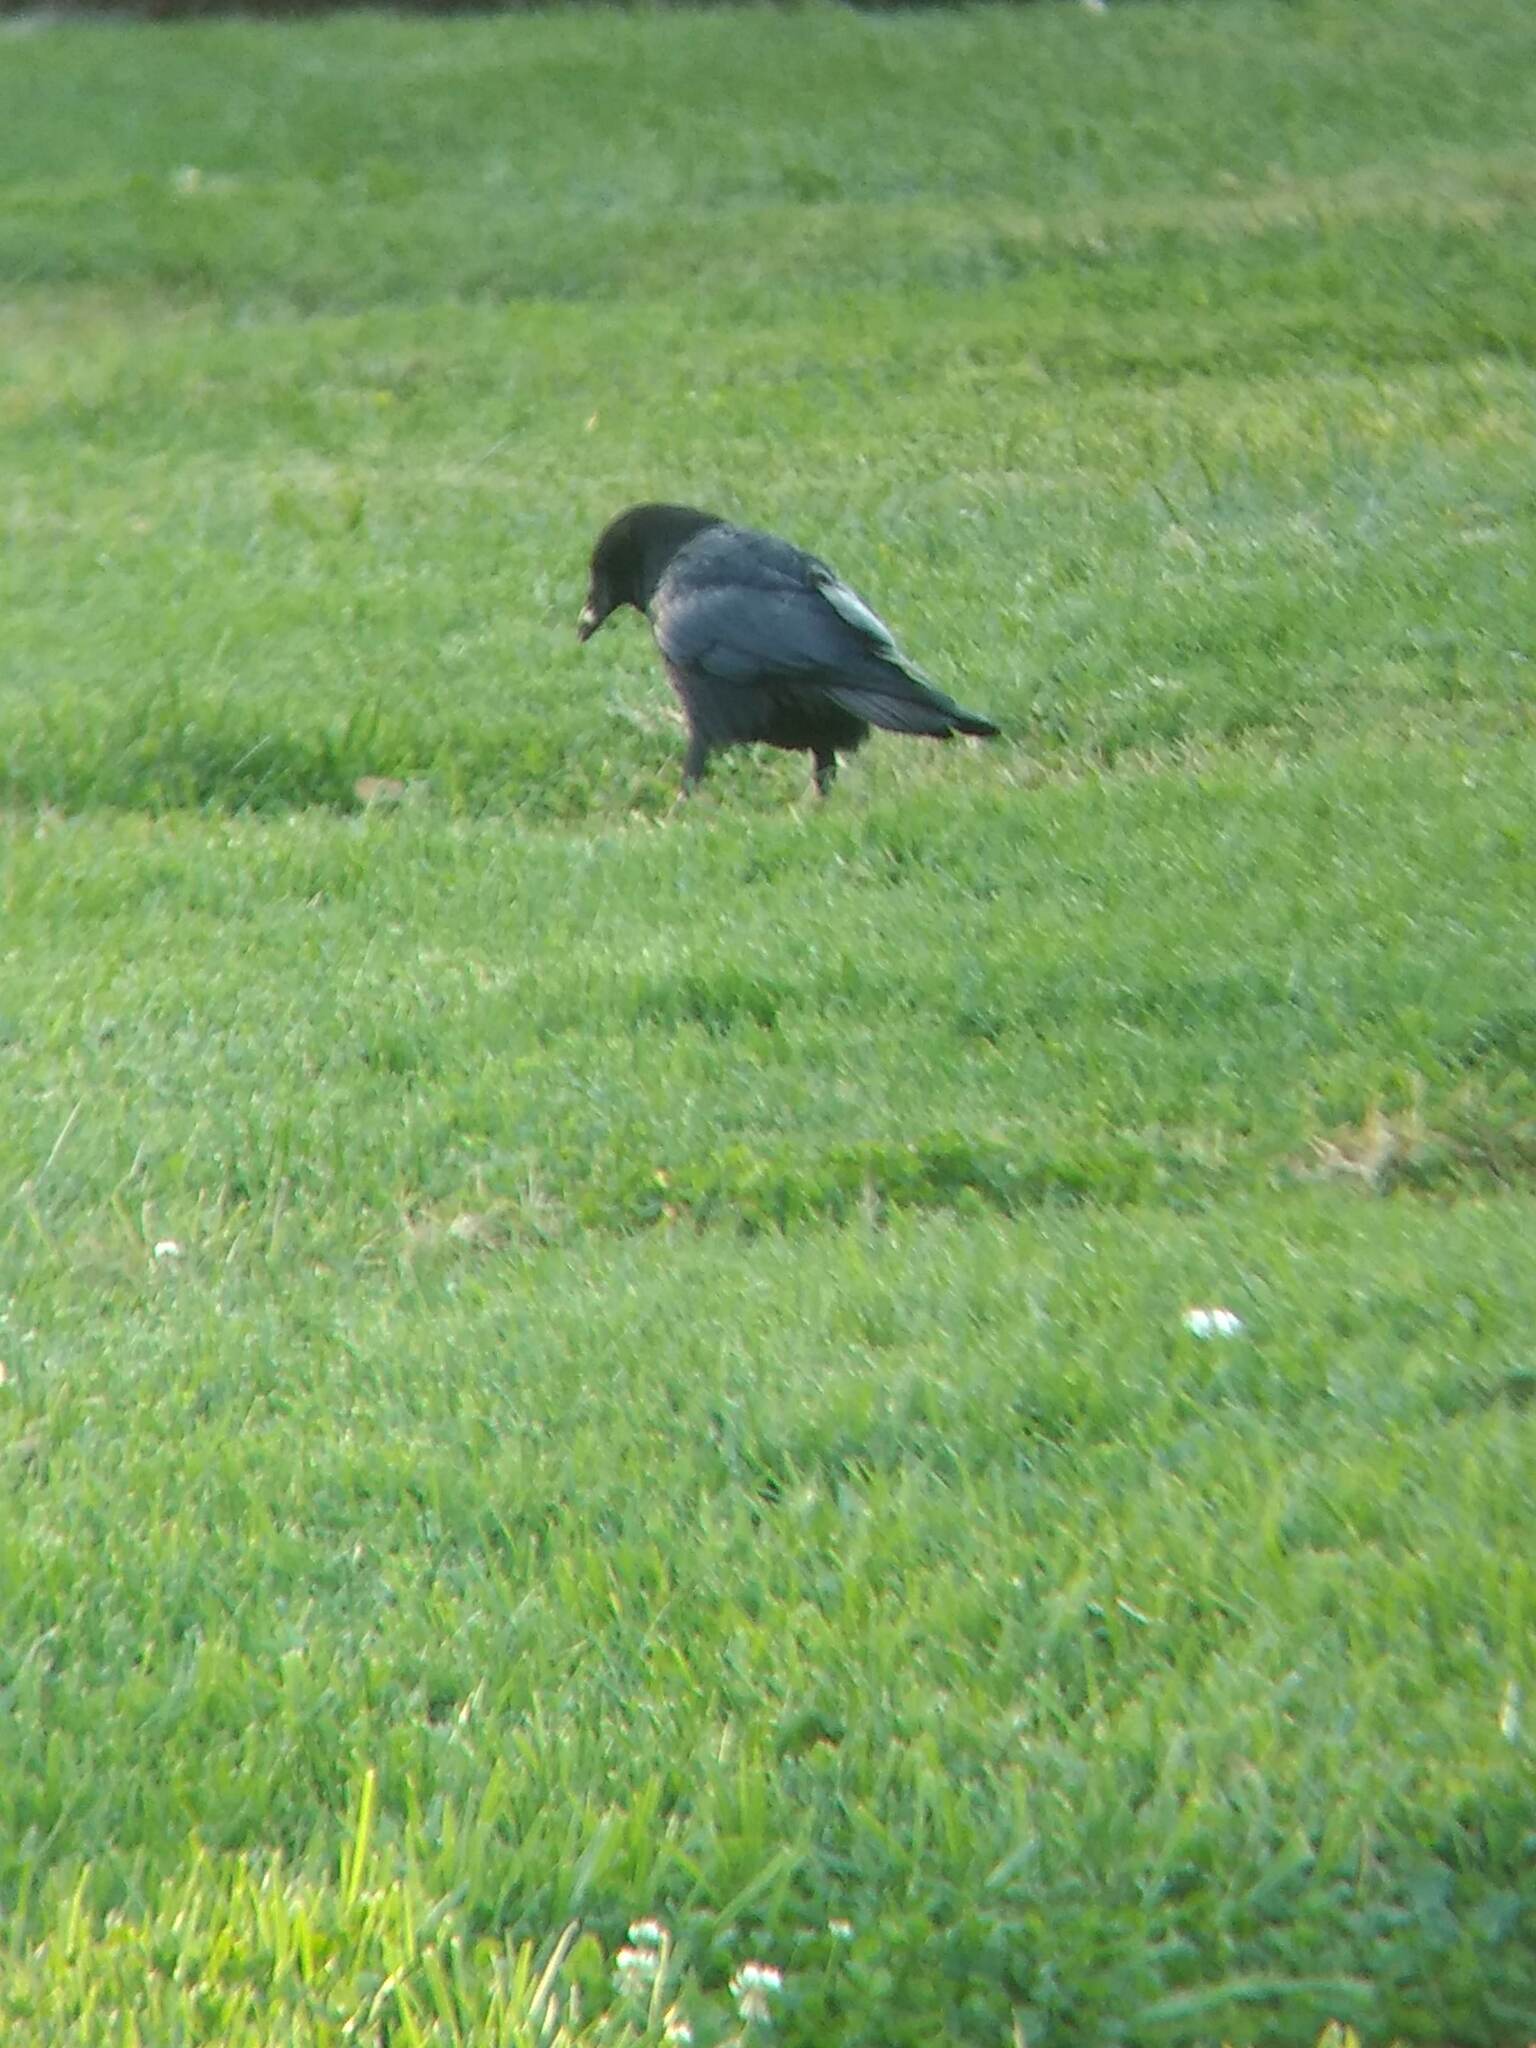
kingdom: Animalia
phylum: Chordata
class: Aves
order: Passeriformes
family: Corvidae
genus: Corvus
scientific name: Corvus corax
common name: Common raven
